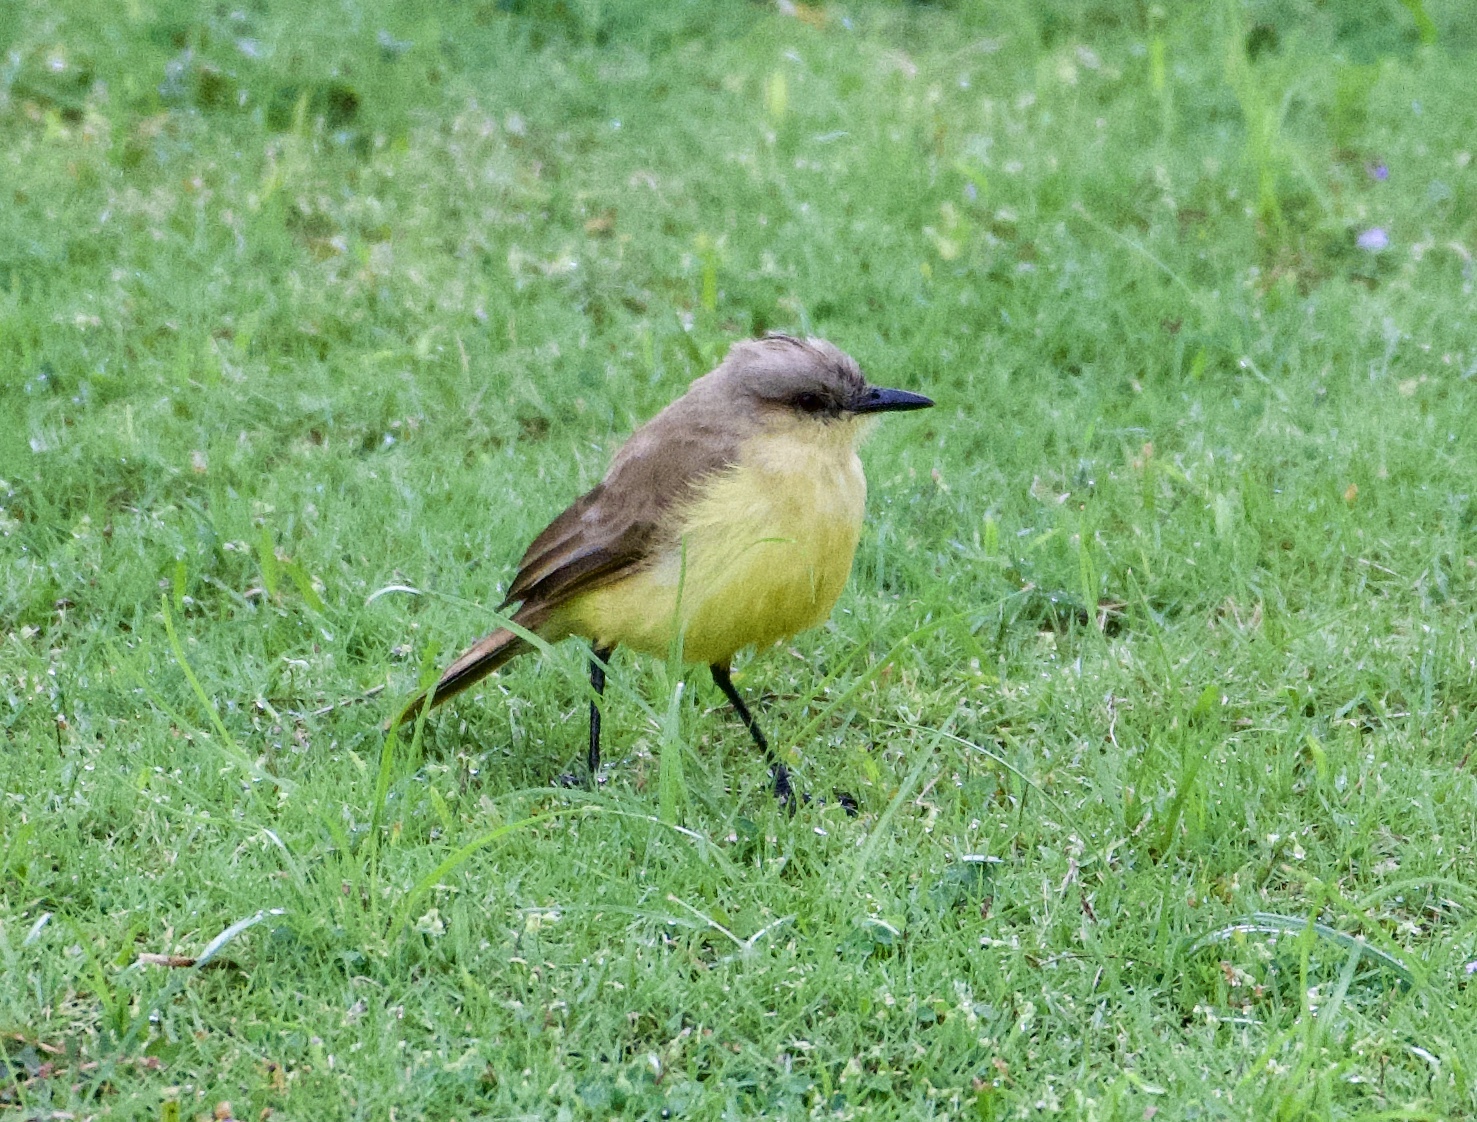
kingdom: Animalia
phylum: Chordata
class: Aves
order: Passeriformes
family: Tyrannidae
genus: Machetornis
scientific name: Machetornis rixosa
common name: Cattle tyrant
